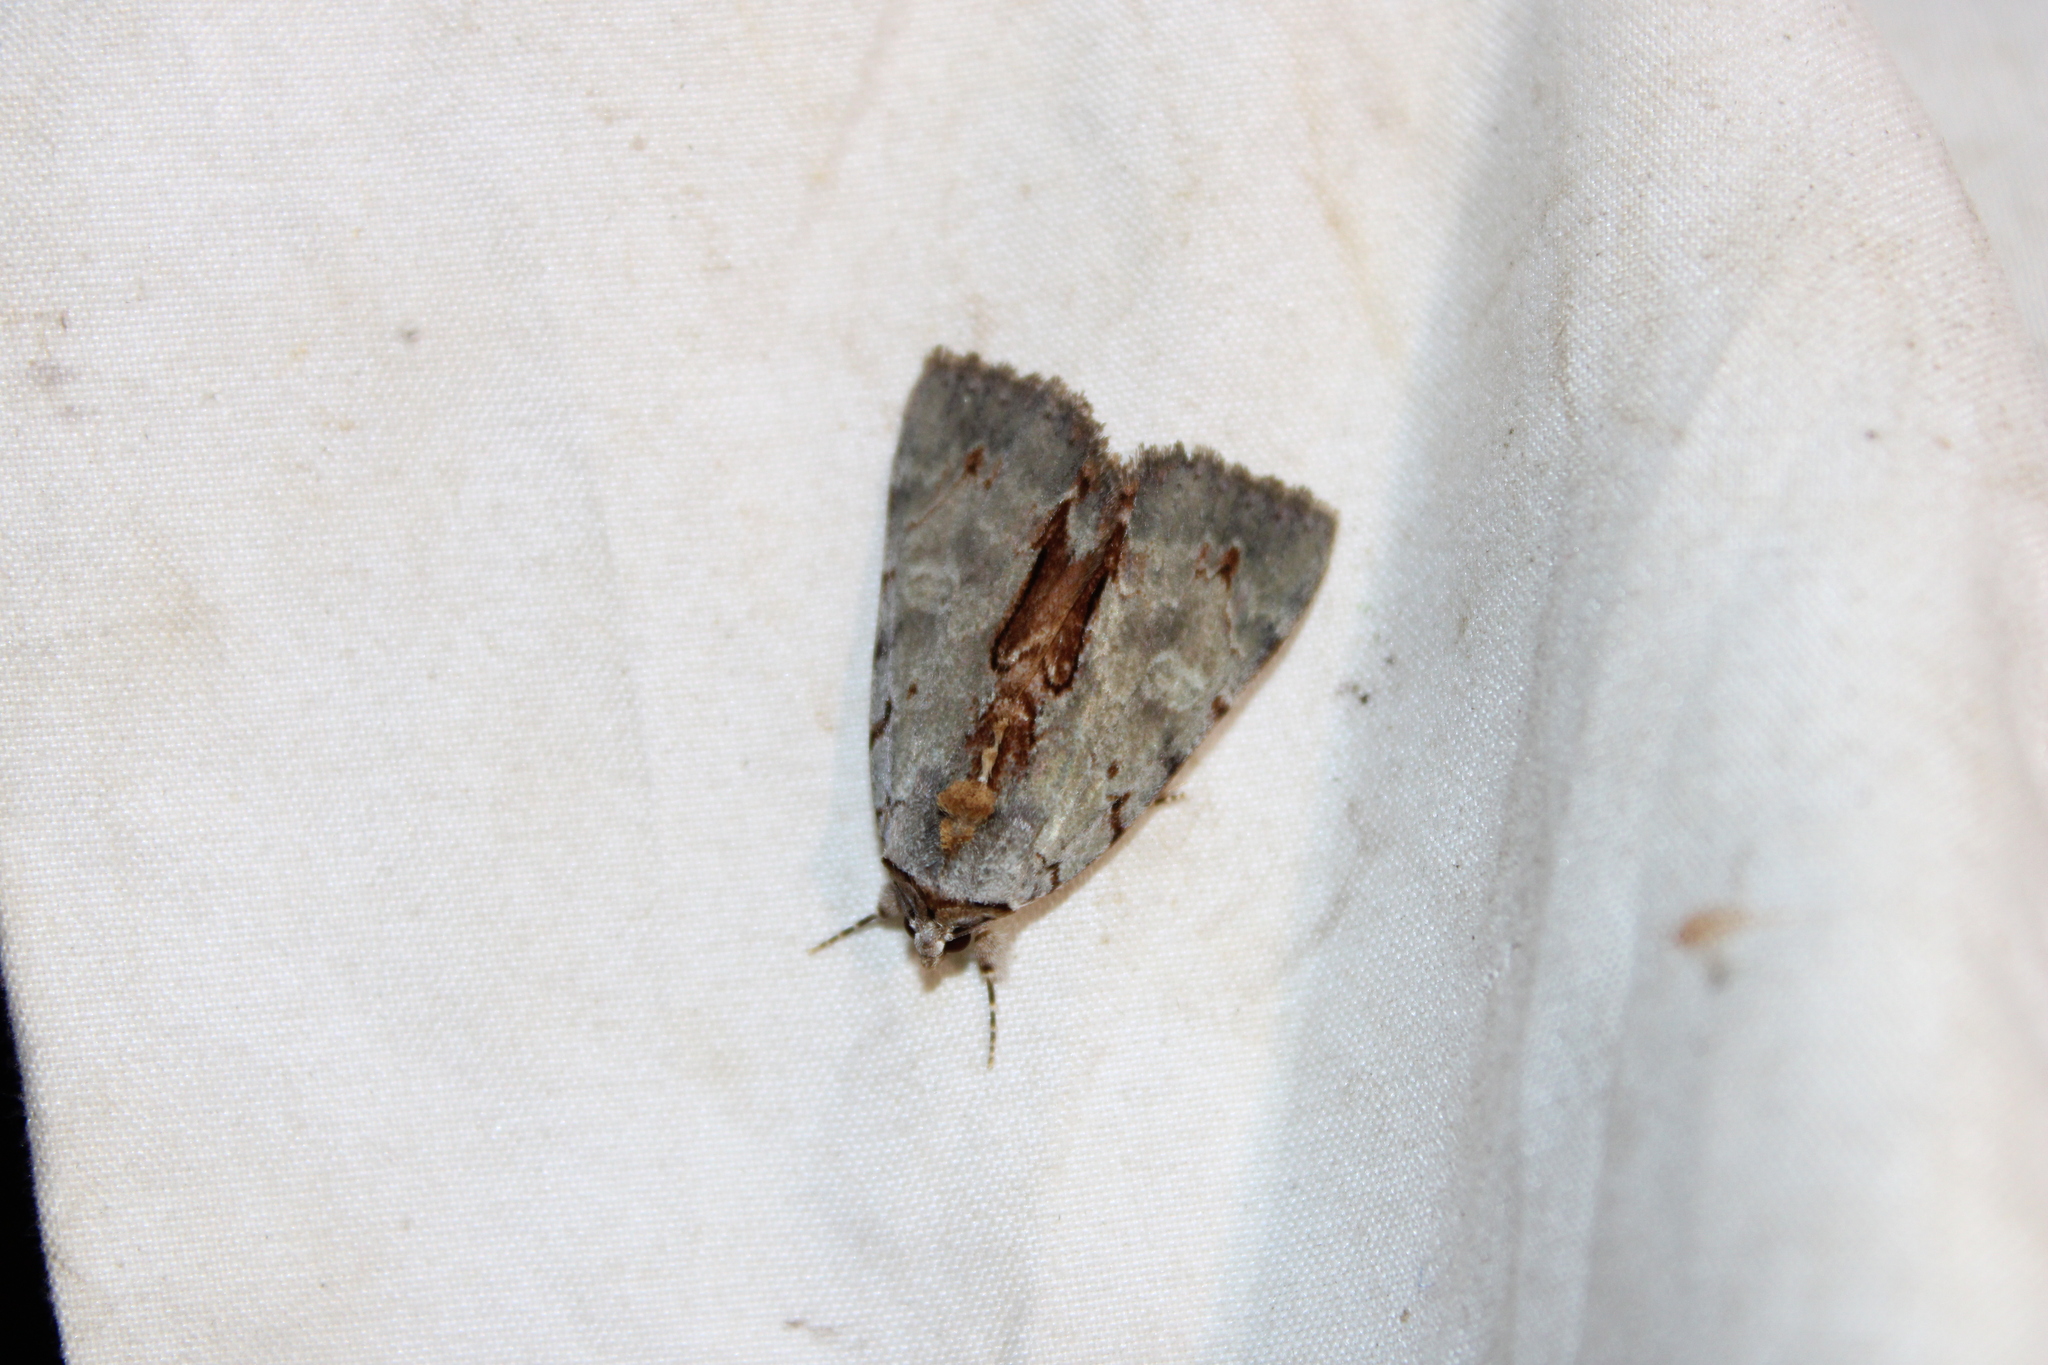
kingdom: Animalia
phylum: Arthropoda
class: Insecta
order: Lepidoptera
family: Erebidae
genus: Catocala
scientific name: Catocala grynea
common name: Woody underwing
